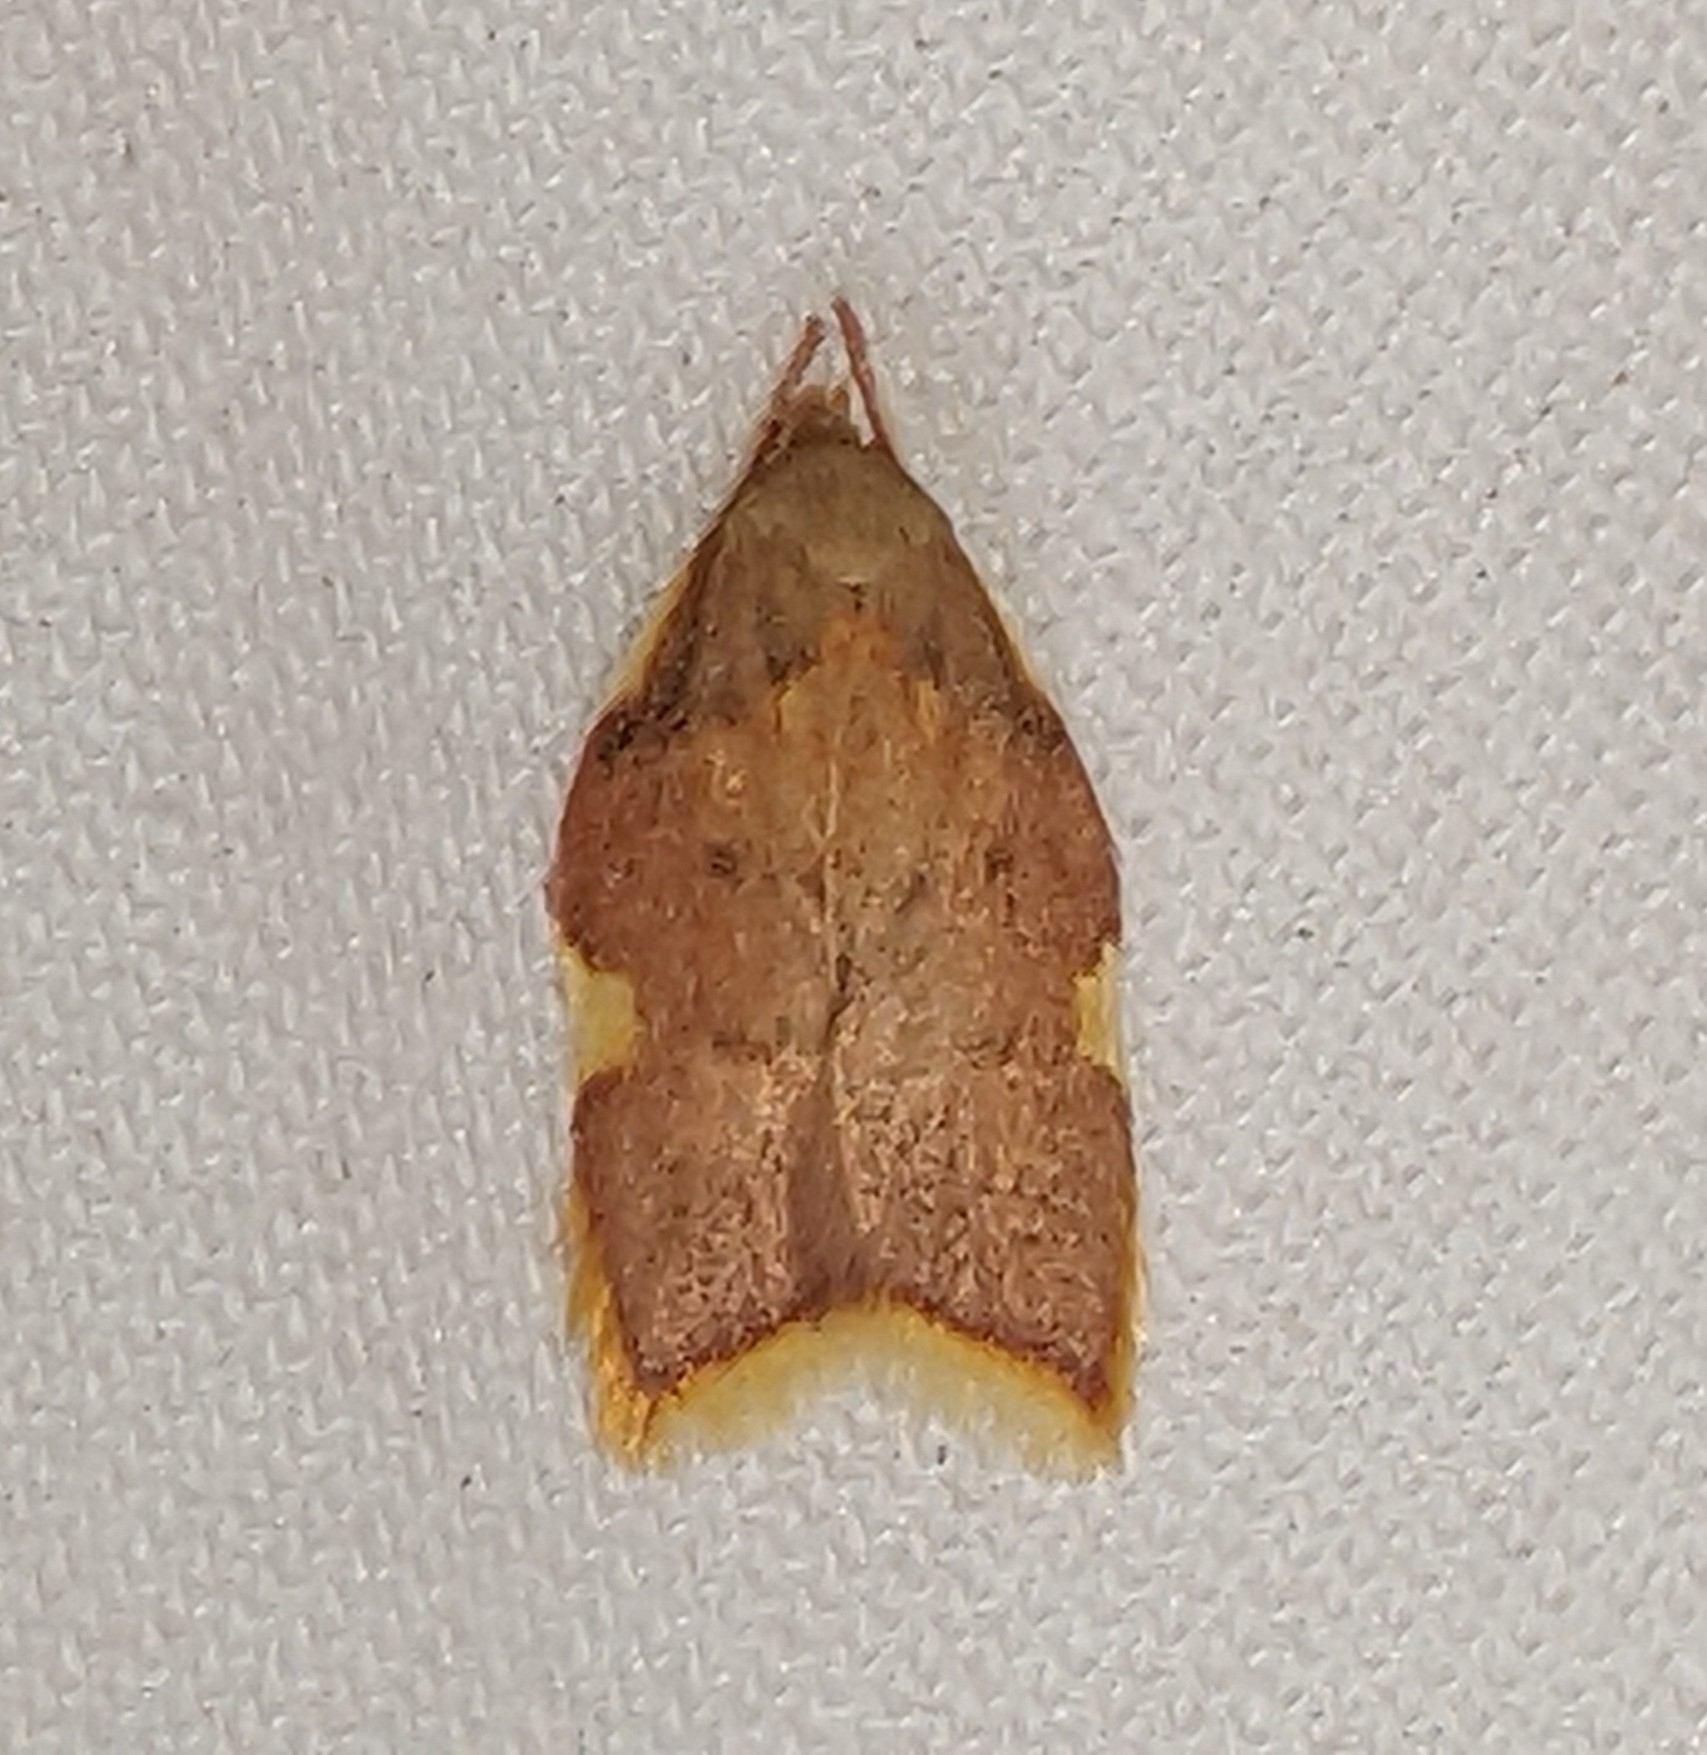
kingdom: Animalia
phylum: Arthropoda
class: Insecta
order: Lepidoptera
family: Peleopodidae
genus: Carcina
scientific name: Carcina quercana
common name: Moth
